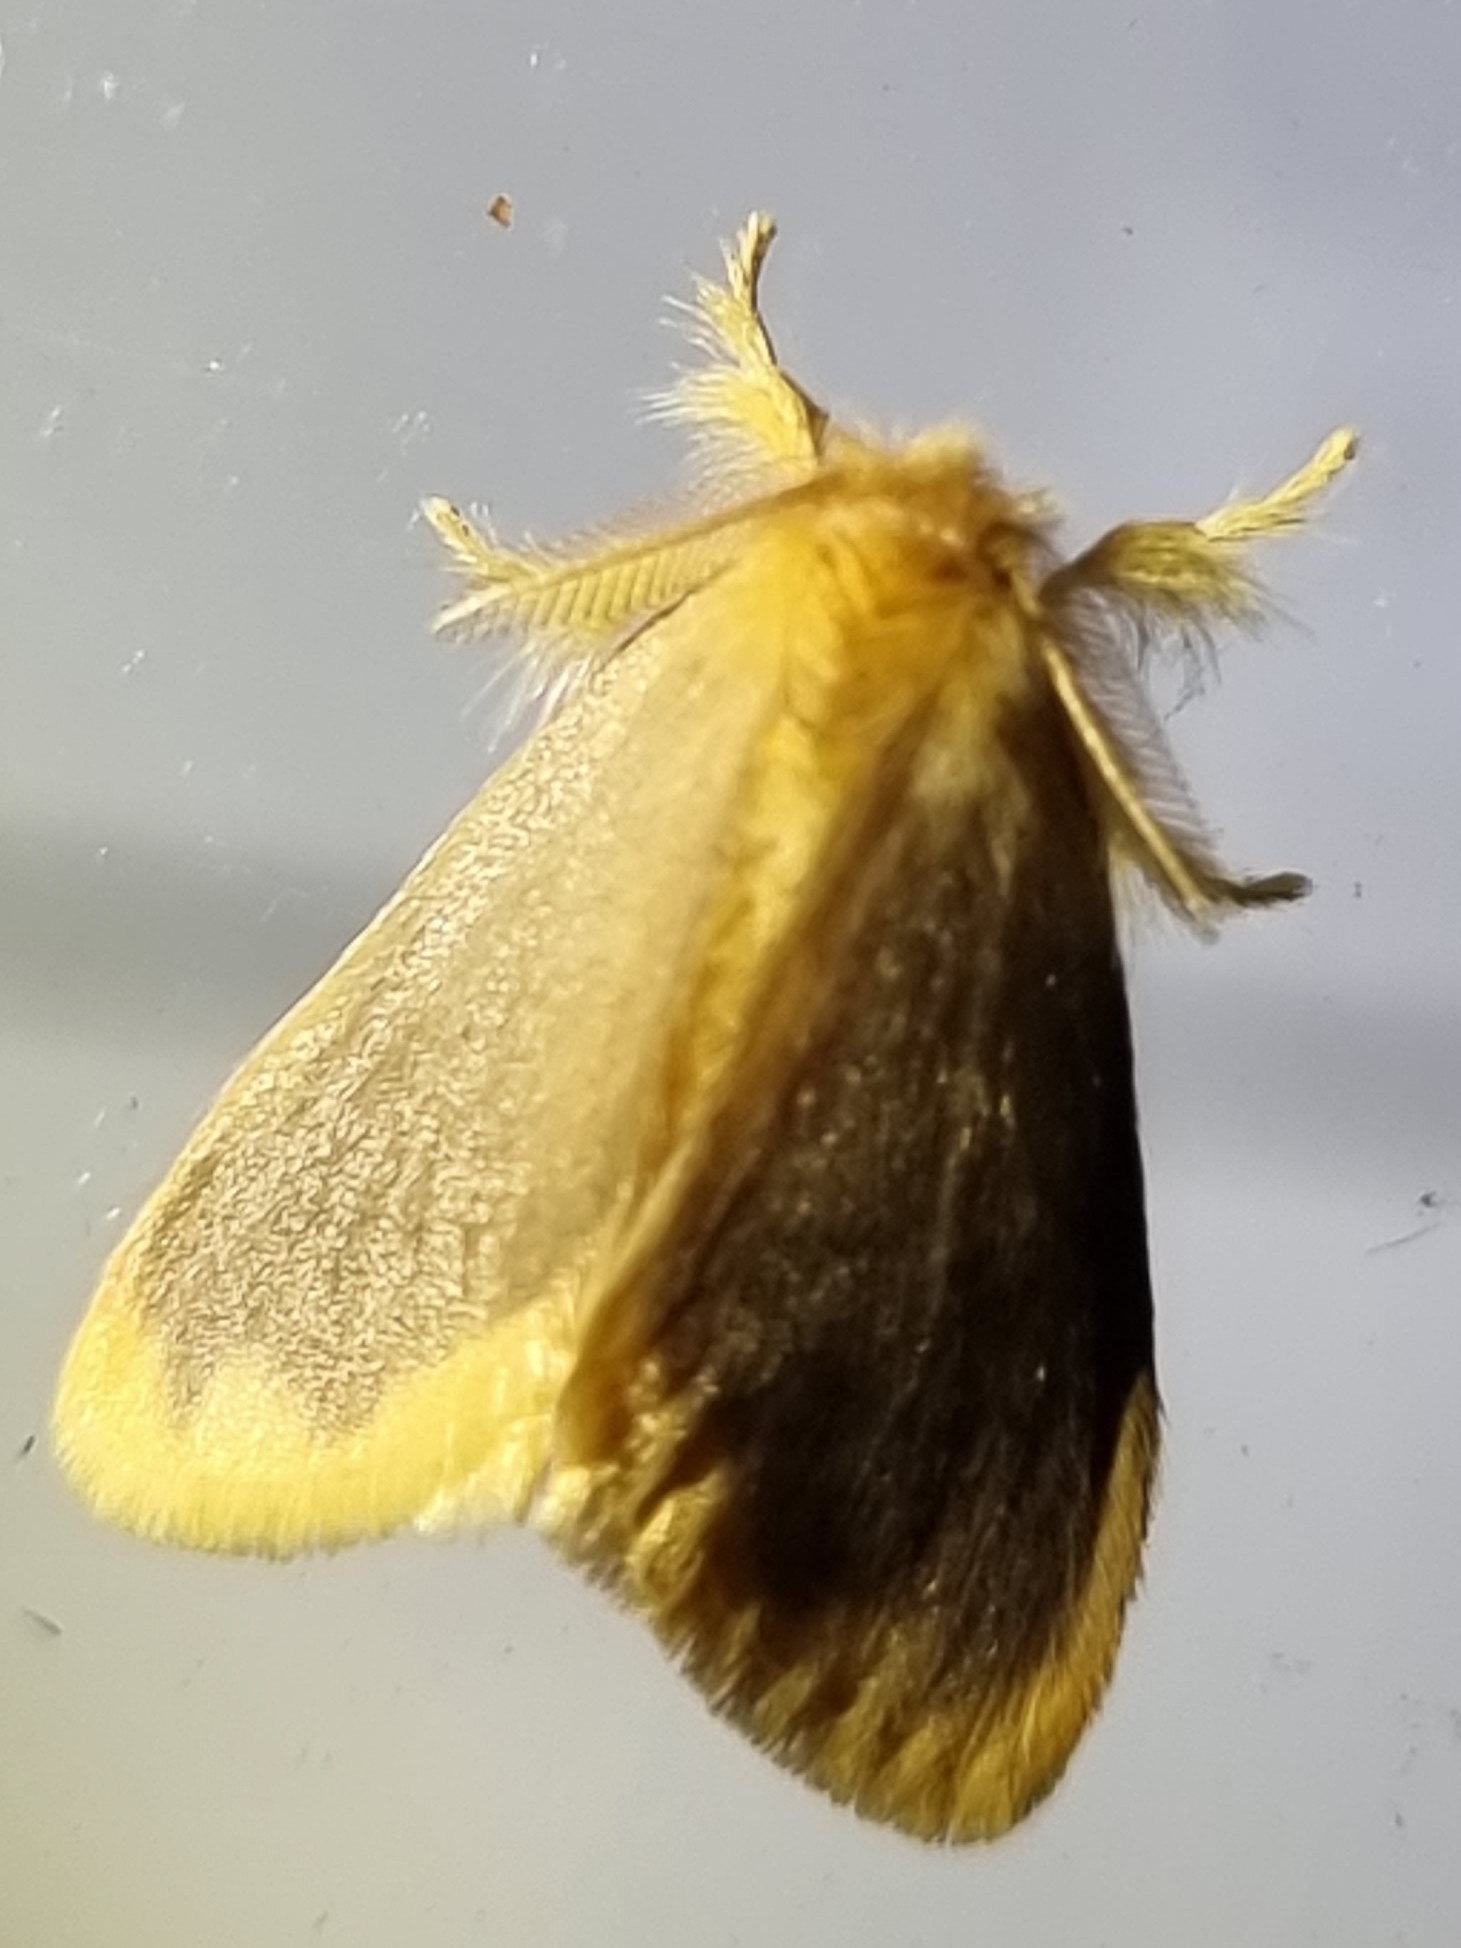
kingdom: Animalia
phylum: Arthropoda
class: Insecta
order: Lepidoptera
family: Erebidae
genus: Euproctis
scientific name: Euproctis fimbriata
